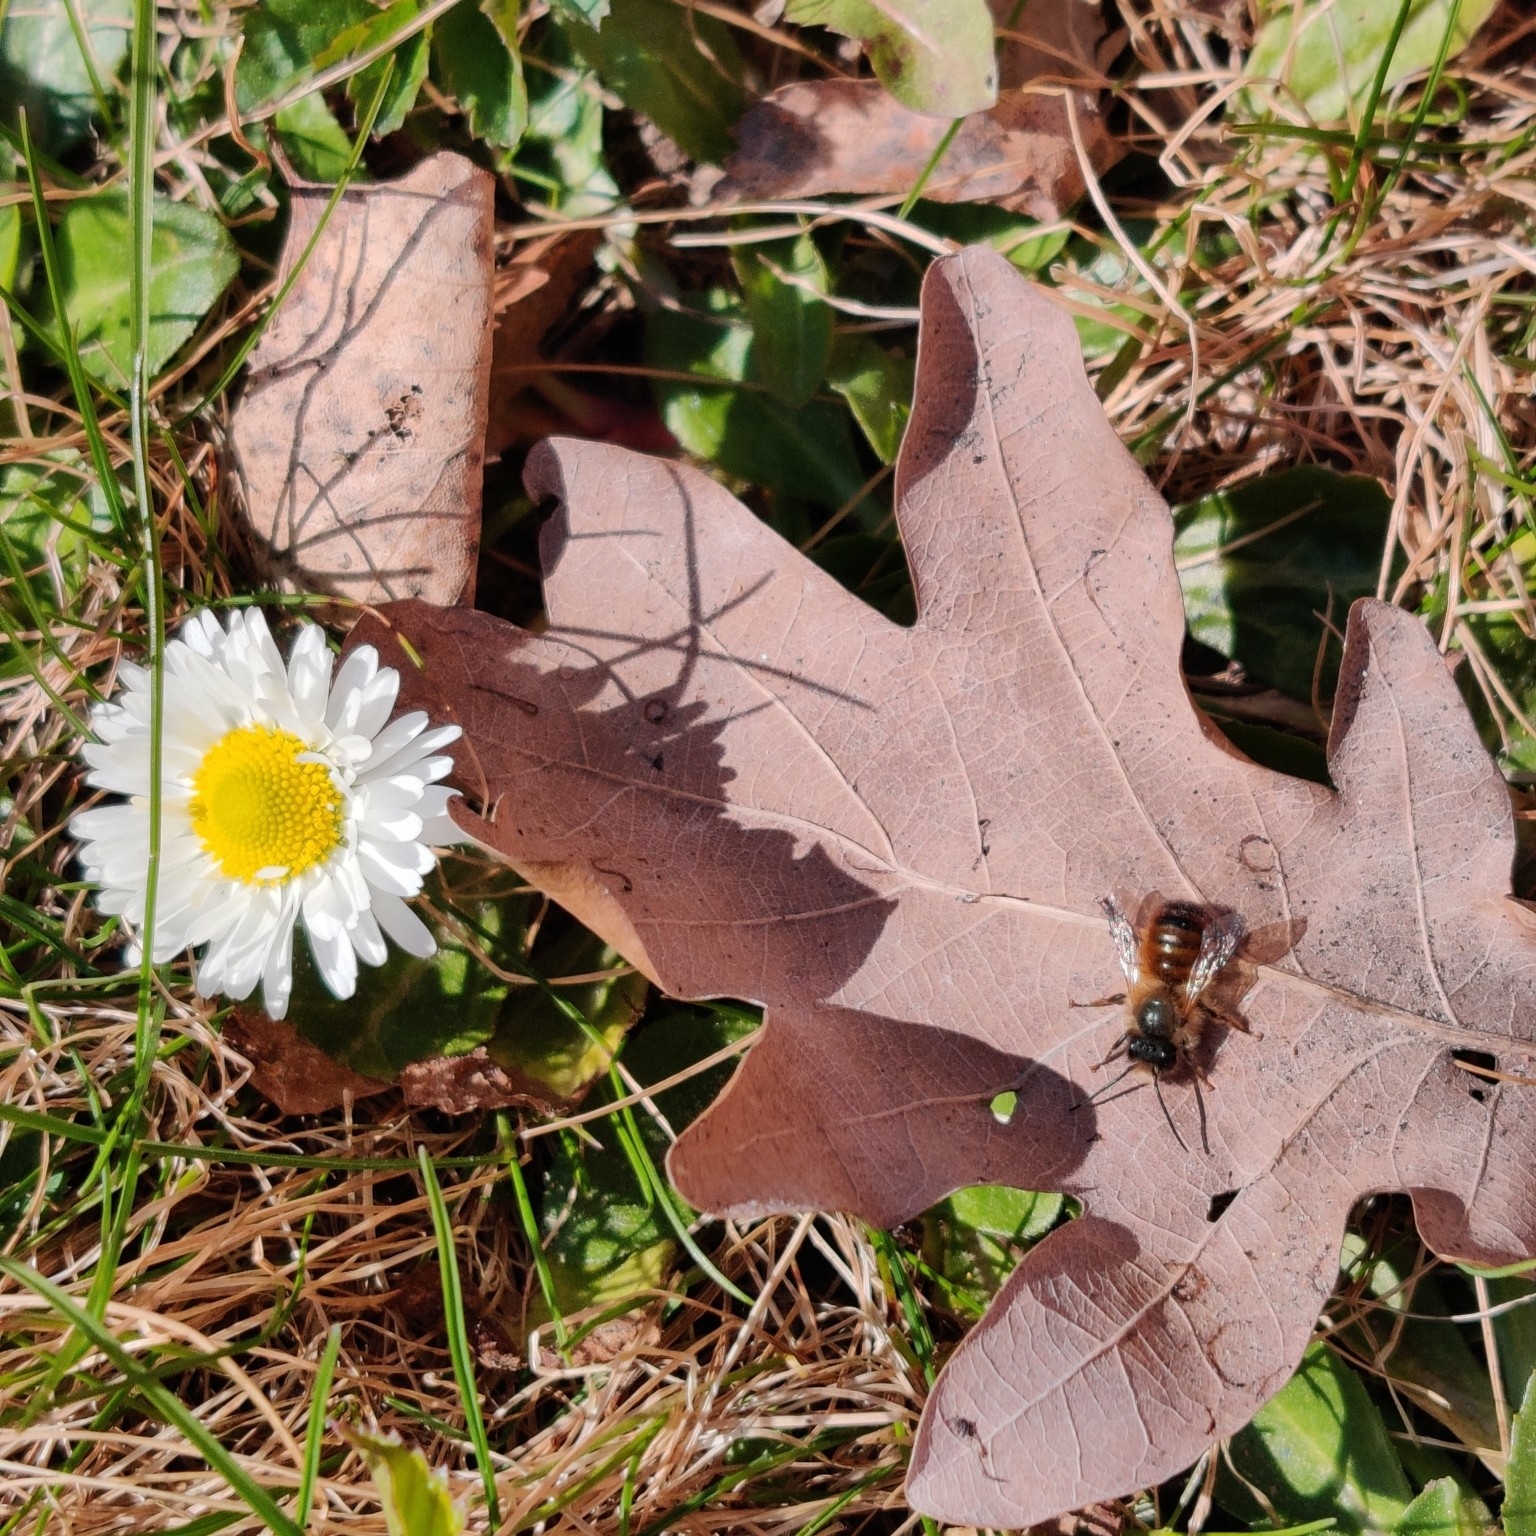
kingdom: Animalia
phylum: Arthropoda
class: Insecta
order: Hymenoptera
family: Megachilidae
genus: Osmia
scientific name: Osmia bicornis
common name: Red mason bee
